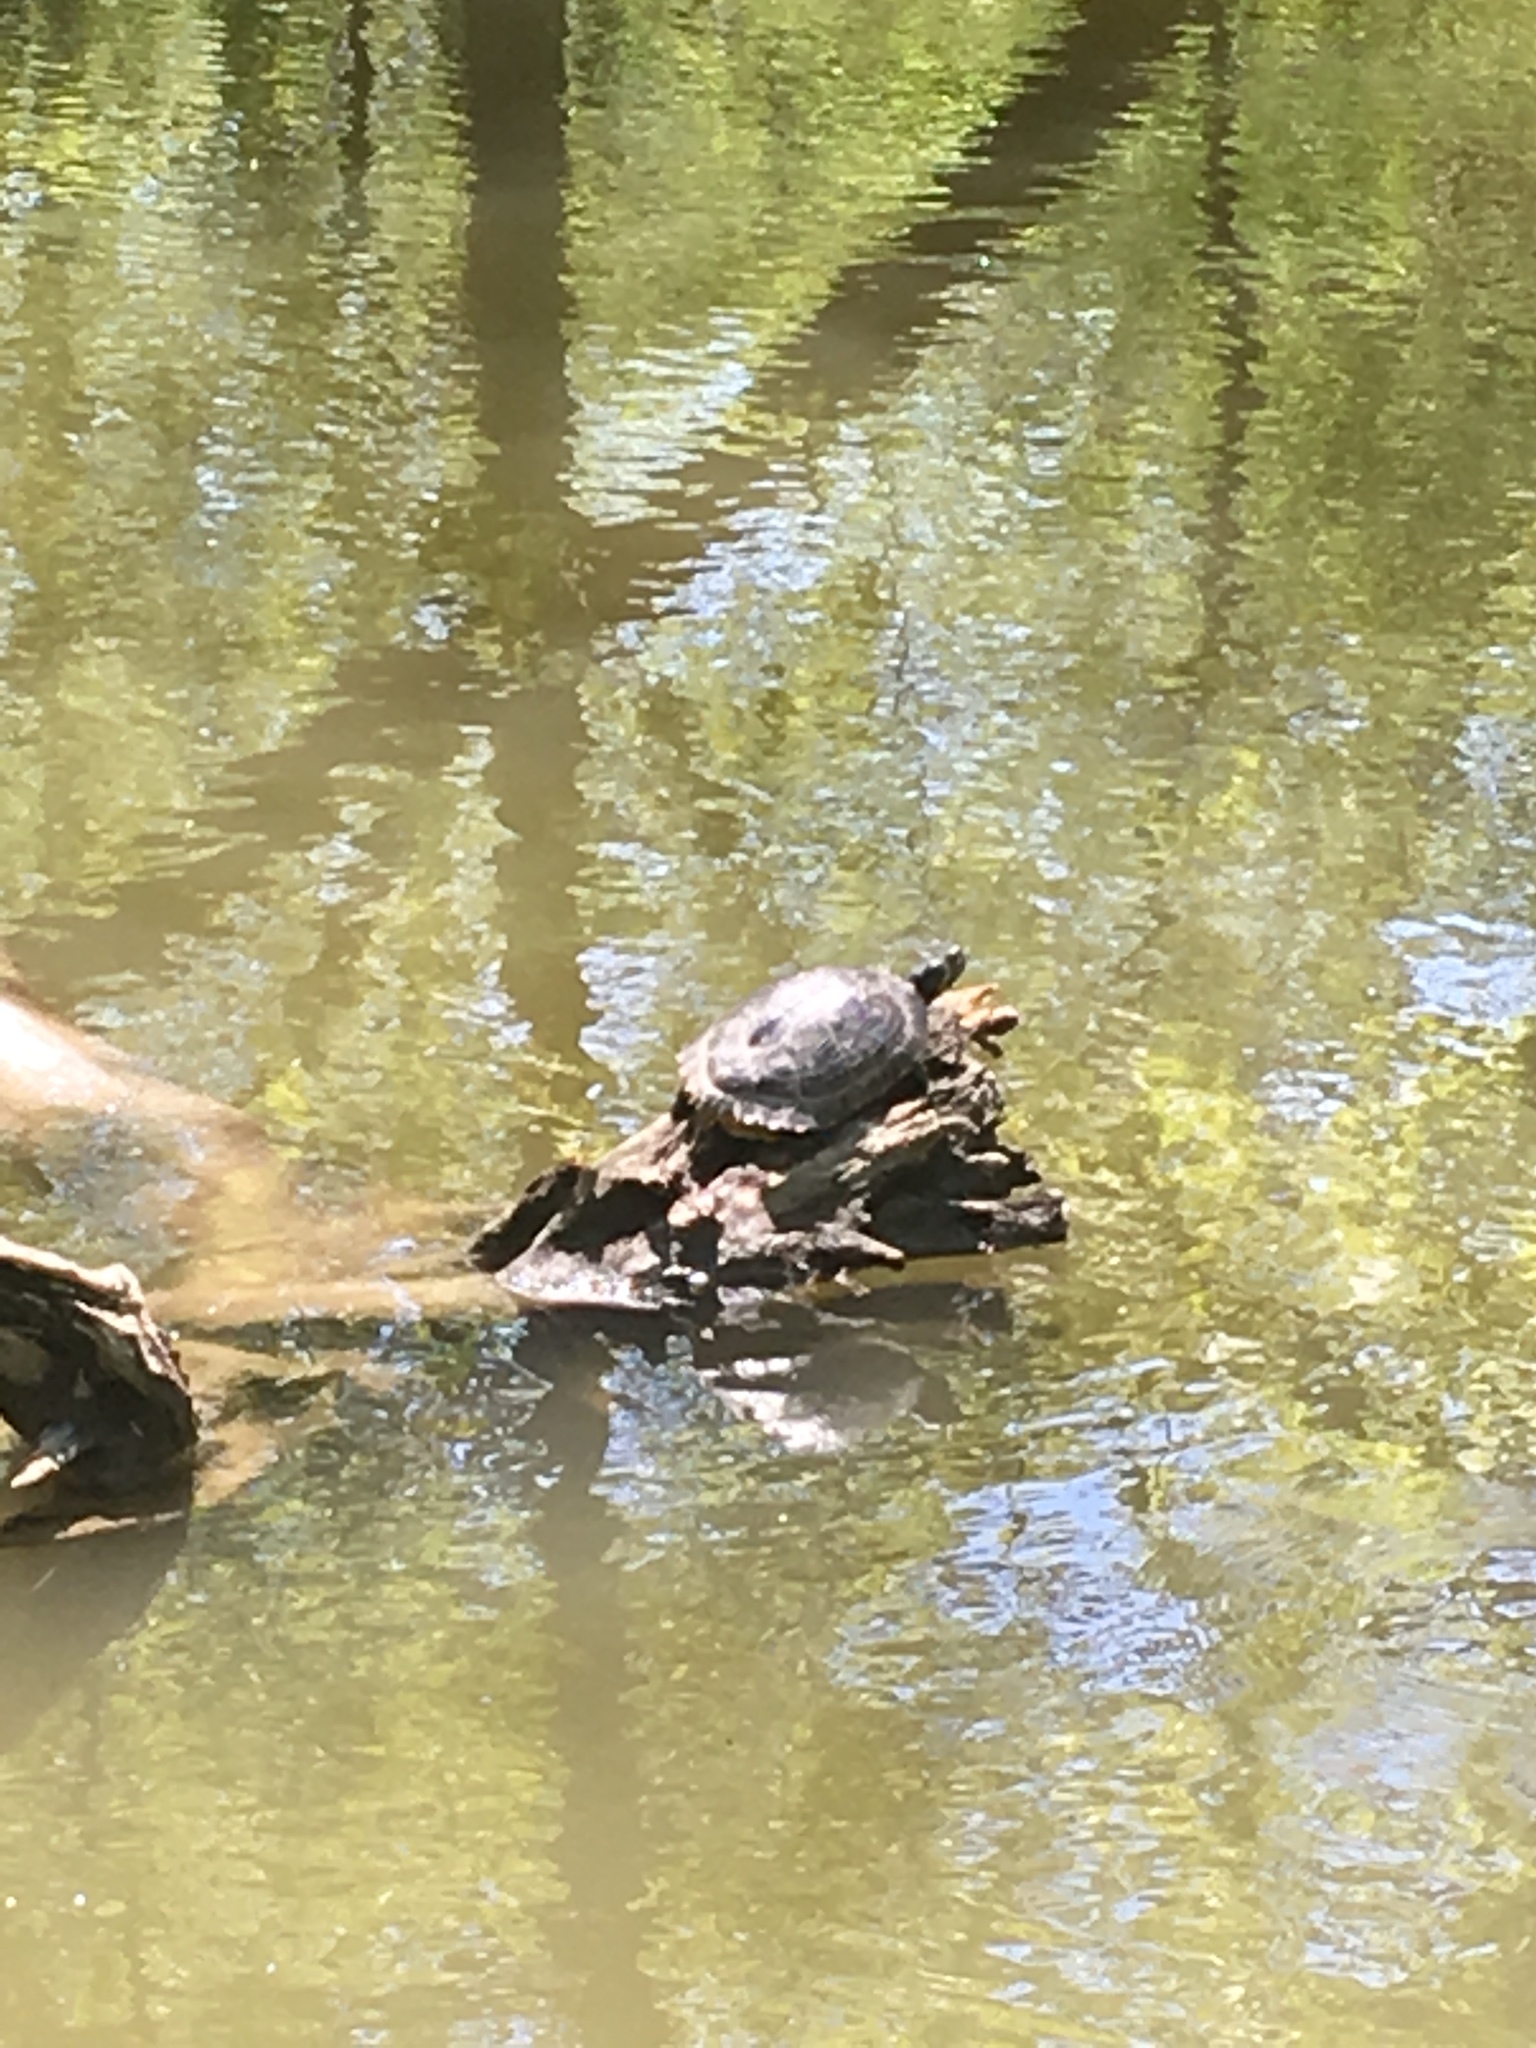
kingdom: Animalia
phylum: Chordata
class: Testudines
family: Emydidae
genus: Trachemys
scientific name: Trachemys scripta
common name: Slider
